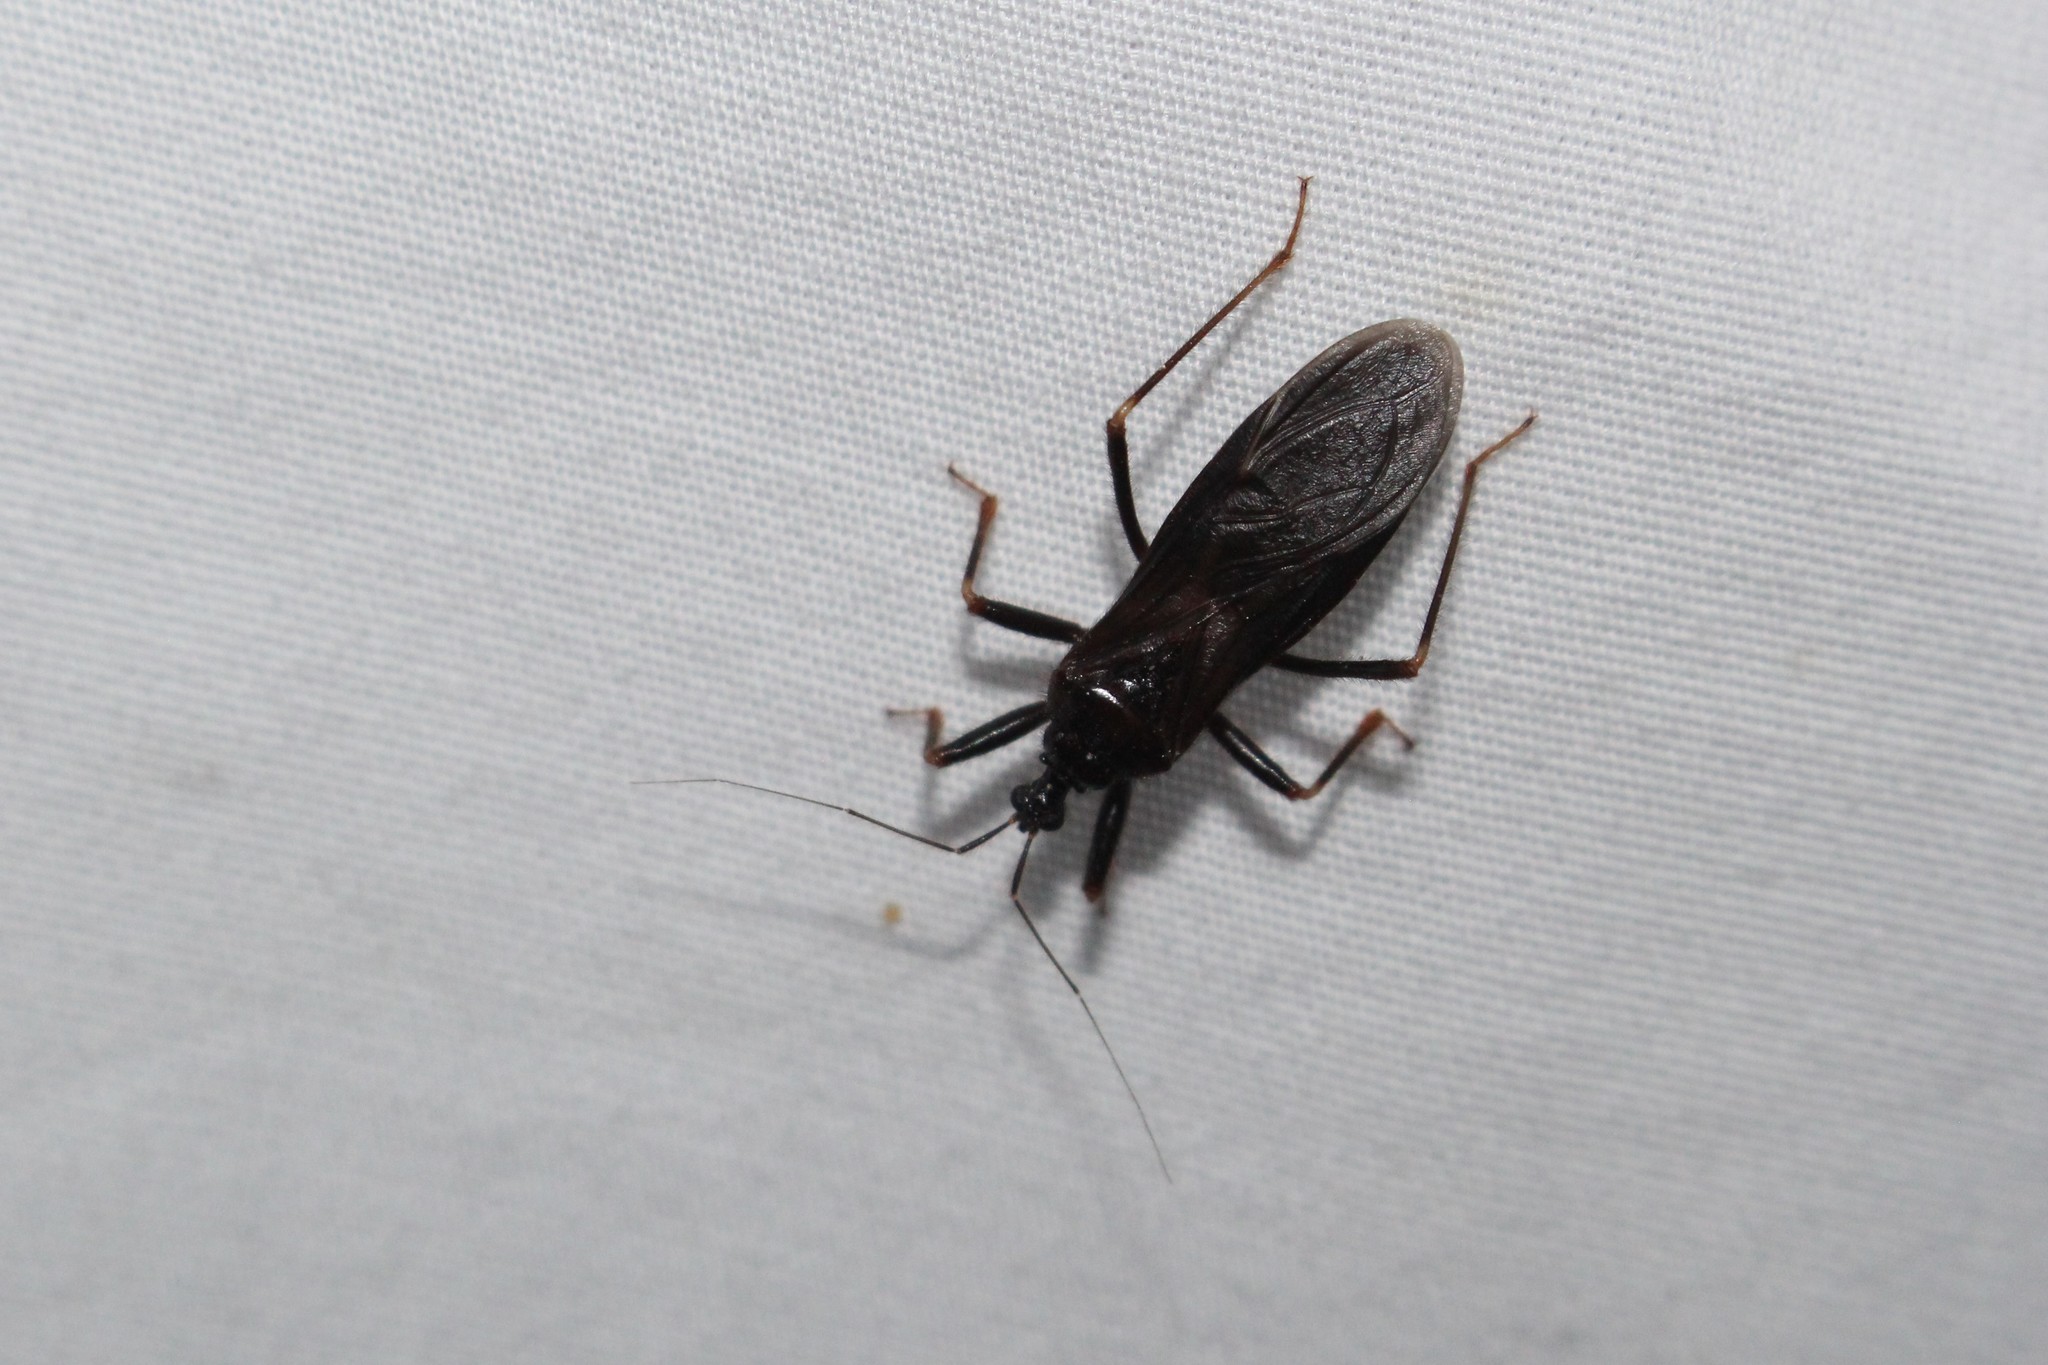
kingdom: Animalia
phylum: Arthropoda
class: Insecta
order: Hemiptera
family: Reduviidae
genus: Reduvius
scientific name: Reduvius personatus
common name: Masked hunter
